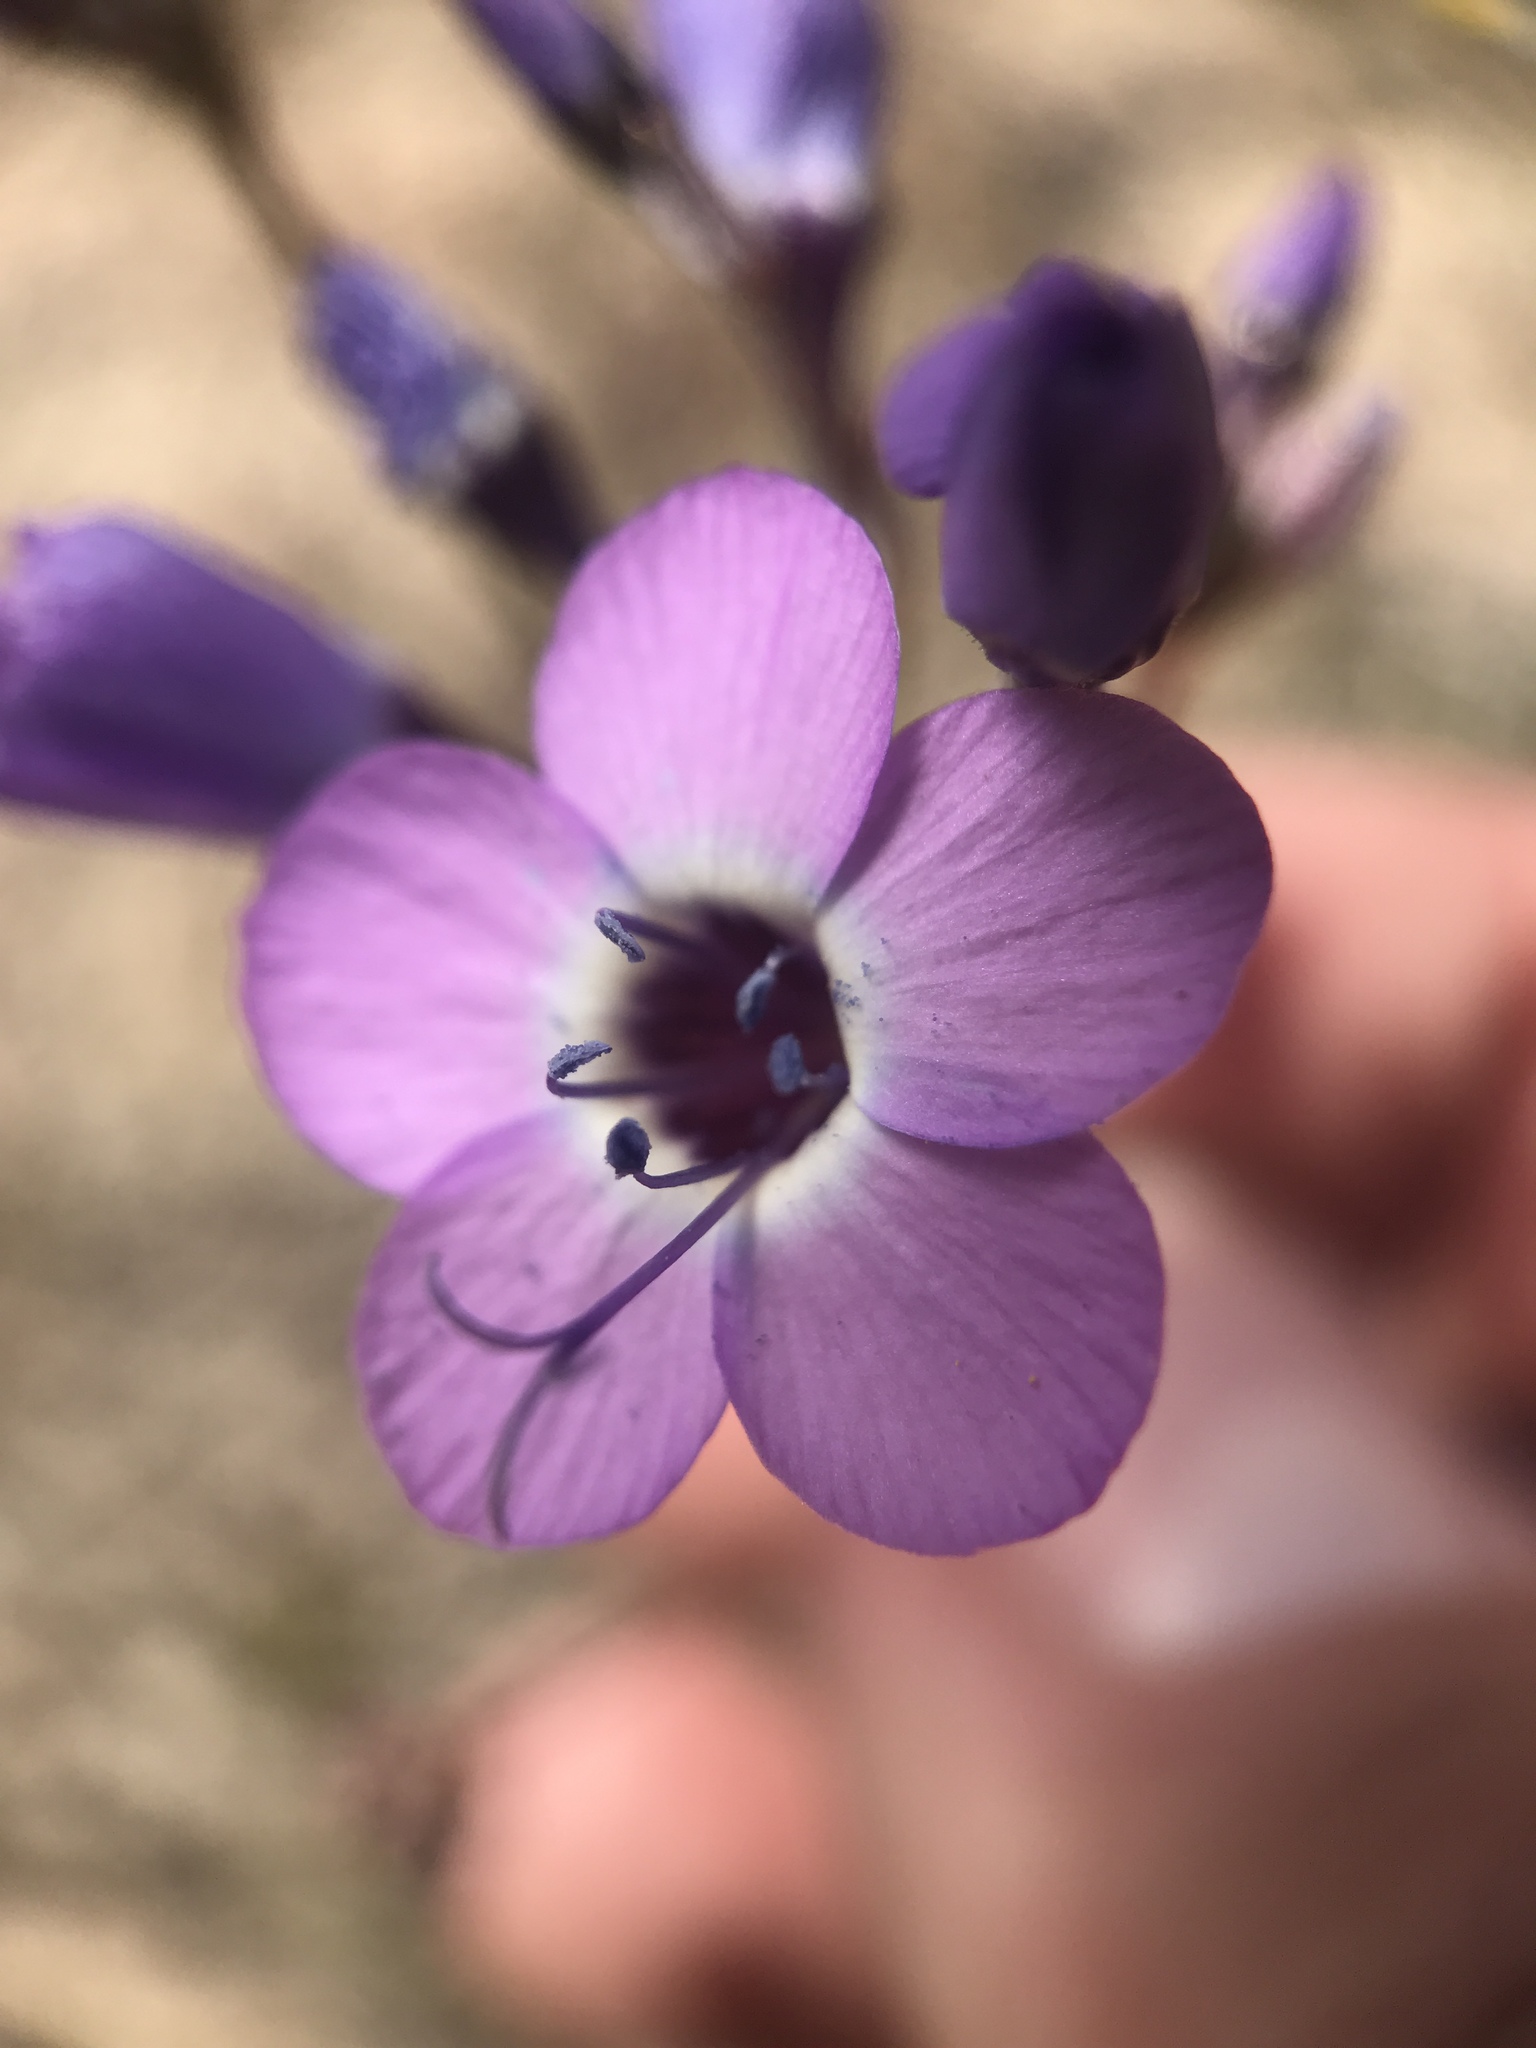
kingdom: Plantae
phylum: Tracheophyta
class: Magnoliopsida
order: Ericales
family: Polemoniaceae
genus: Gilia
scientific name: Gilia tenuiflora
